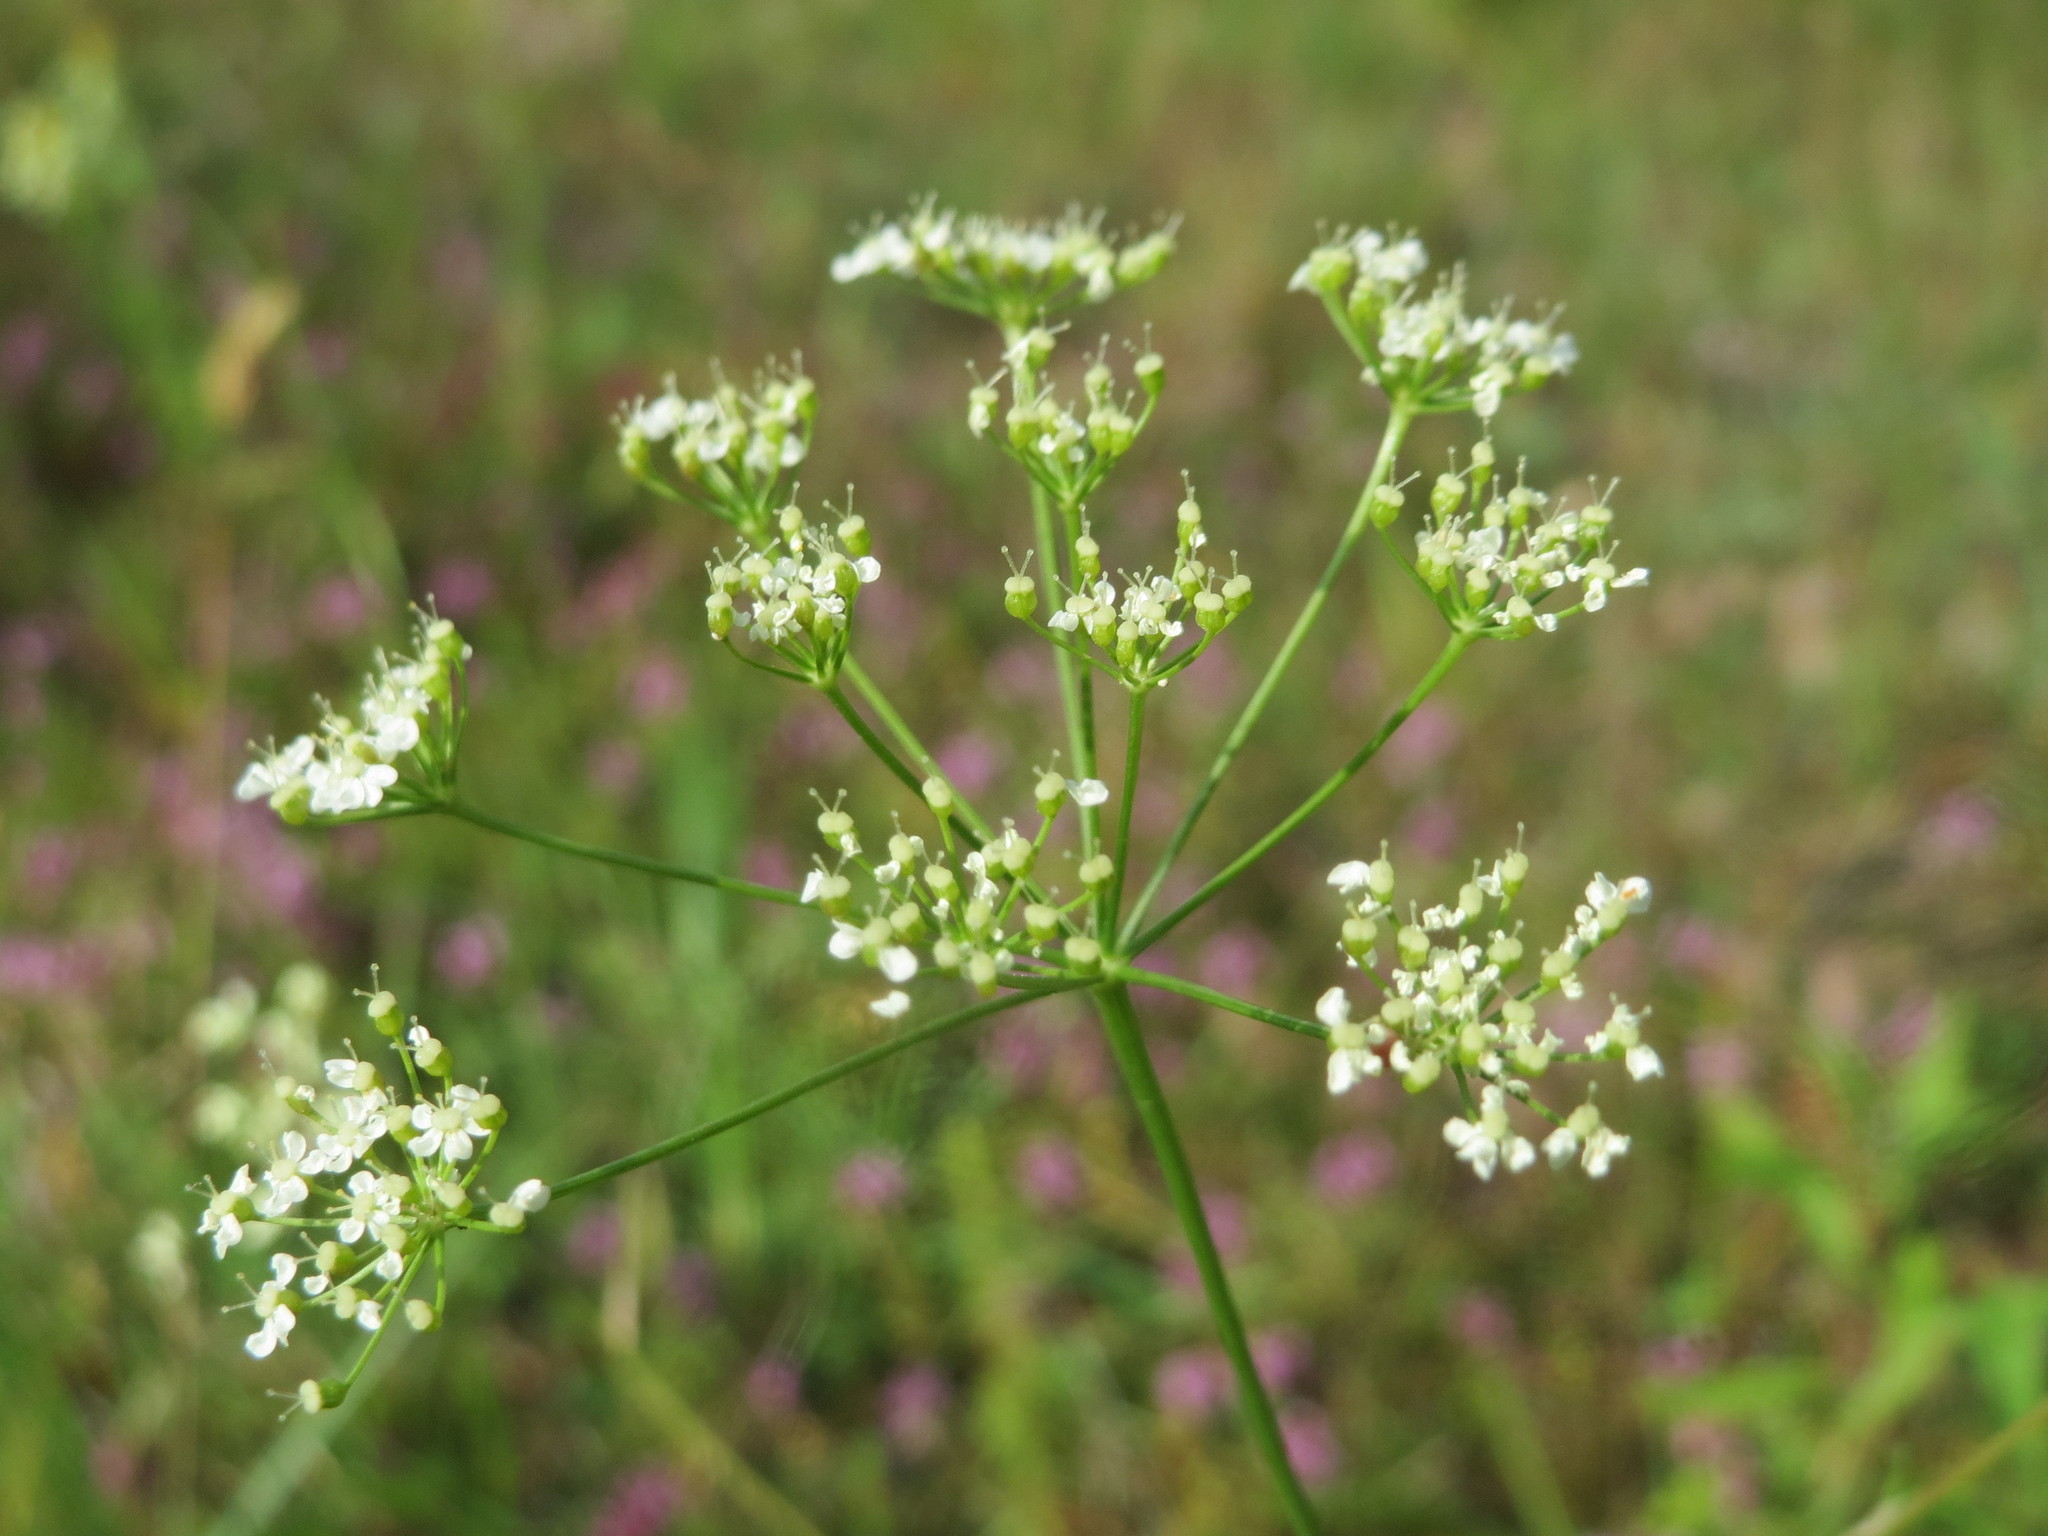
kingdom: Plantae
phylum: Tracheophyta
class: Magnoliopsida
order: Apiales
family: Apiaceae
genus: Pimpinella
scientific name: Pimpinella saxifraga
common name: Burnet-saxifrage
